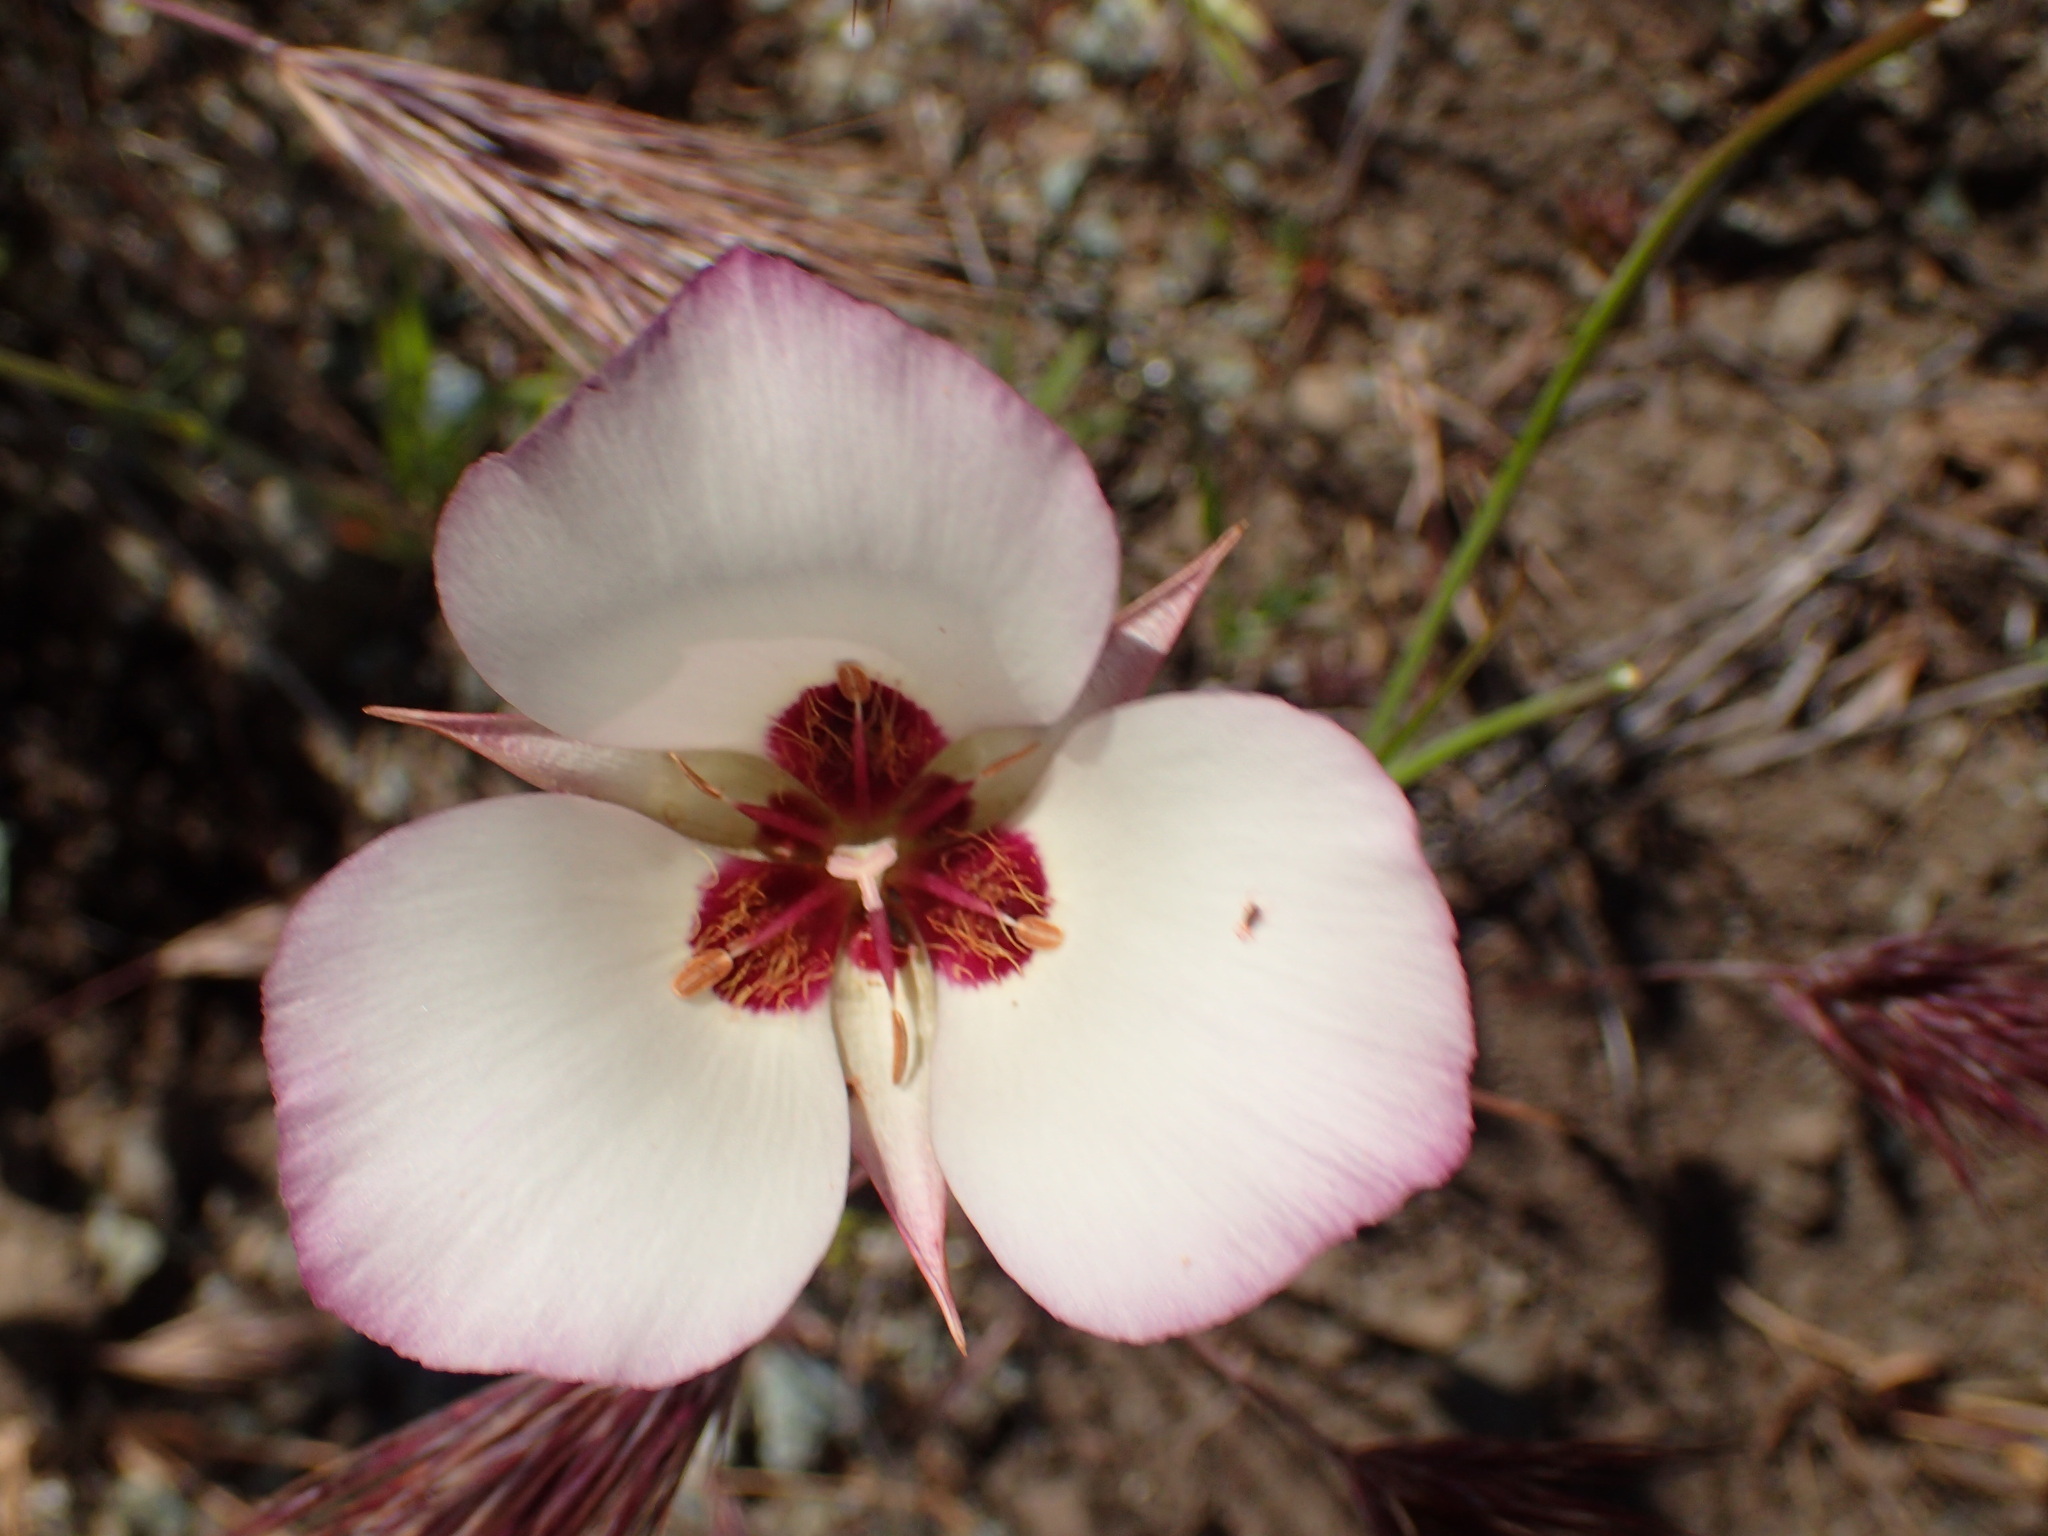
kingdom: Plantae
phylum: Tracheophyta
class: Liliopsida
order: Liliales
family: Liliaceae
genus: Calochortus
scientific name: Calochortus catalinae
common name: Catalina mariposa-lily
